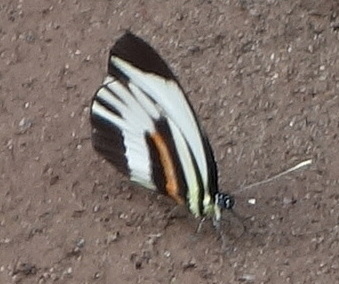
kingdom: Animalia
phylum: Arthropoda
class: Insecta
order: Lepidoptera
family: Pieridae
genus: Perrhybris
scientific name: Perrhybris pamela
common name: Chiapas white
